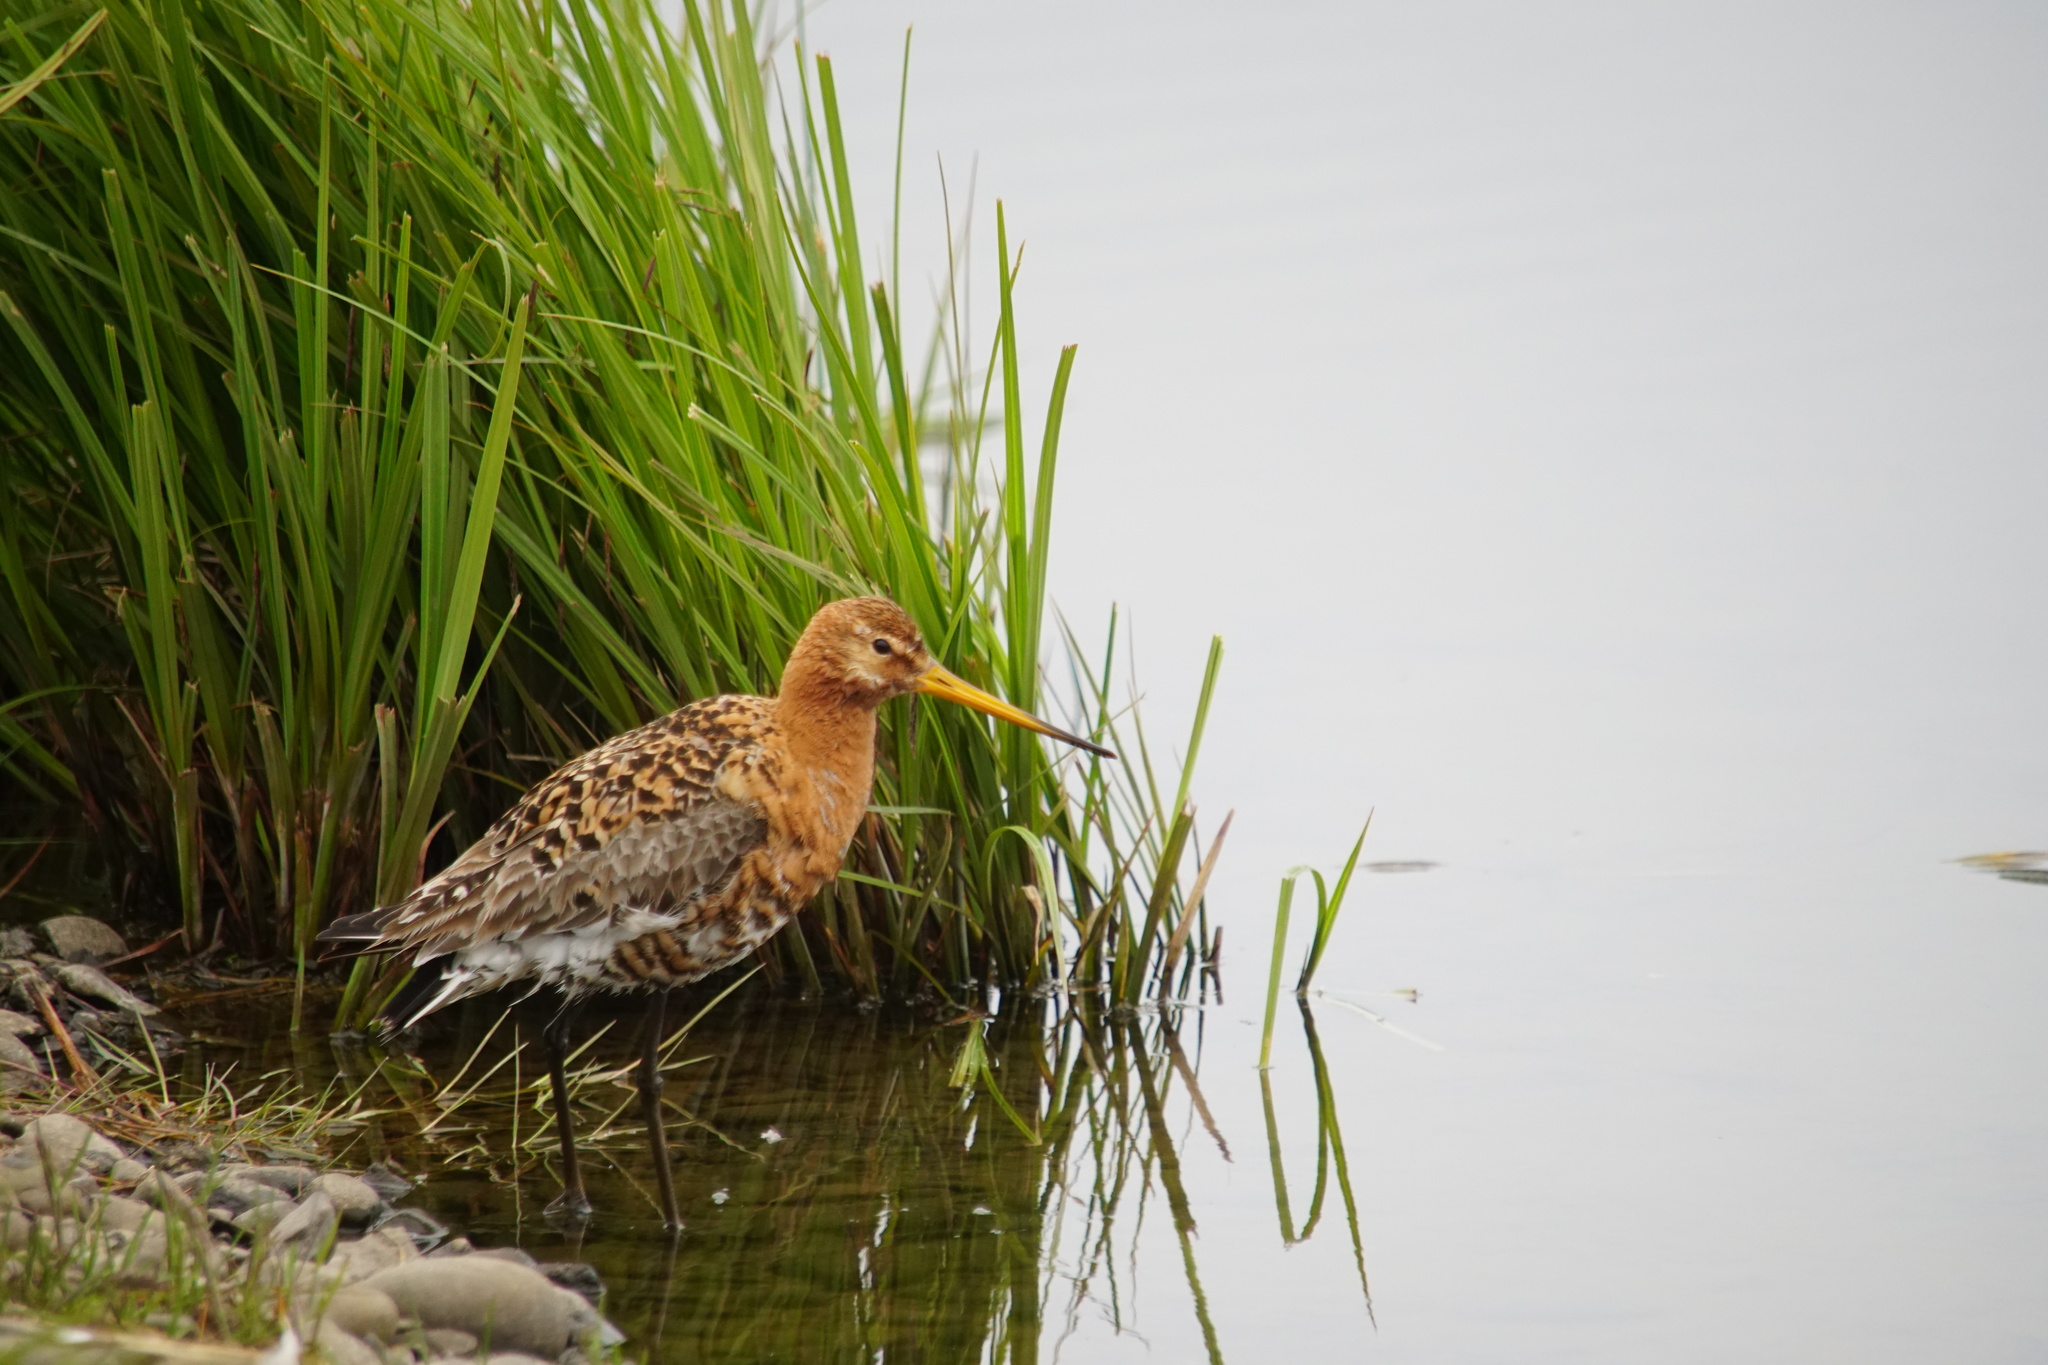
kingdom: Animalia
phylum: Chordata
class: Aves
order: Charadriiformes
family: Scolopacidae
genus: Limosa
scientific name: Limosa limosa
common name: Black-tailed godwit
